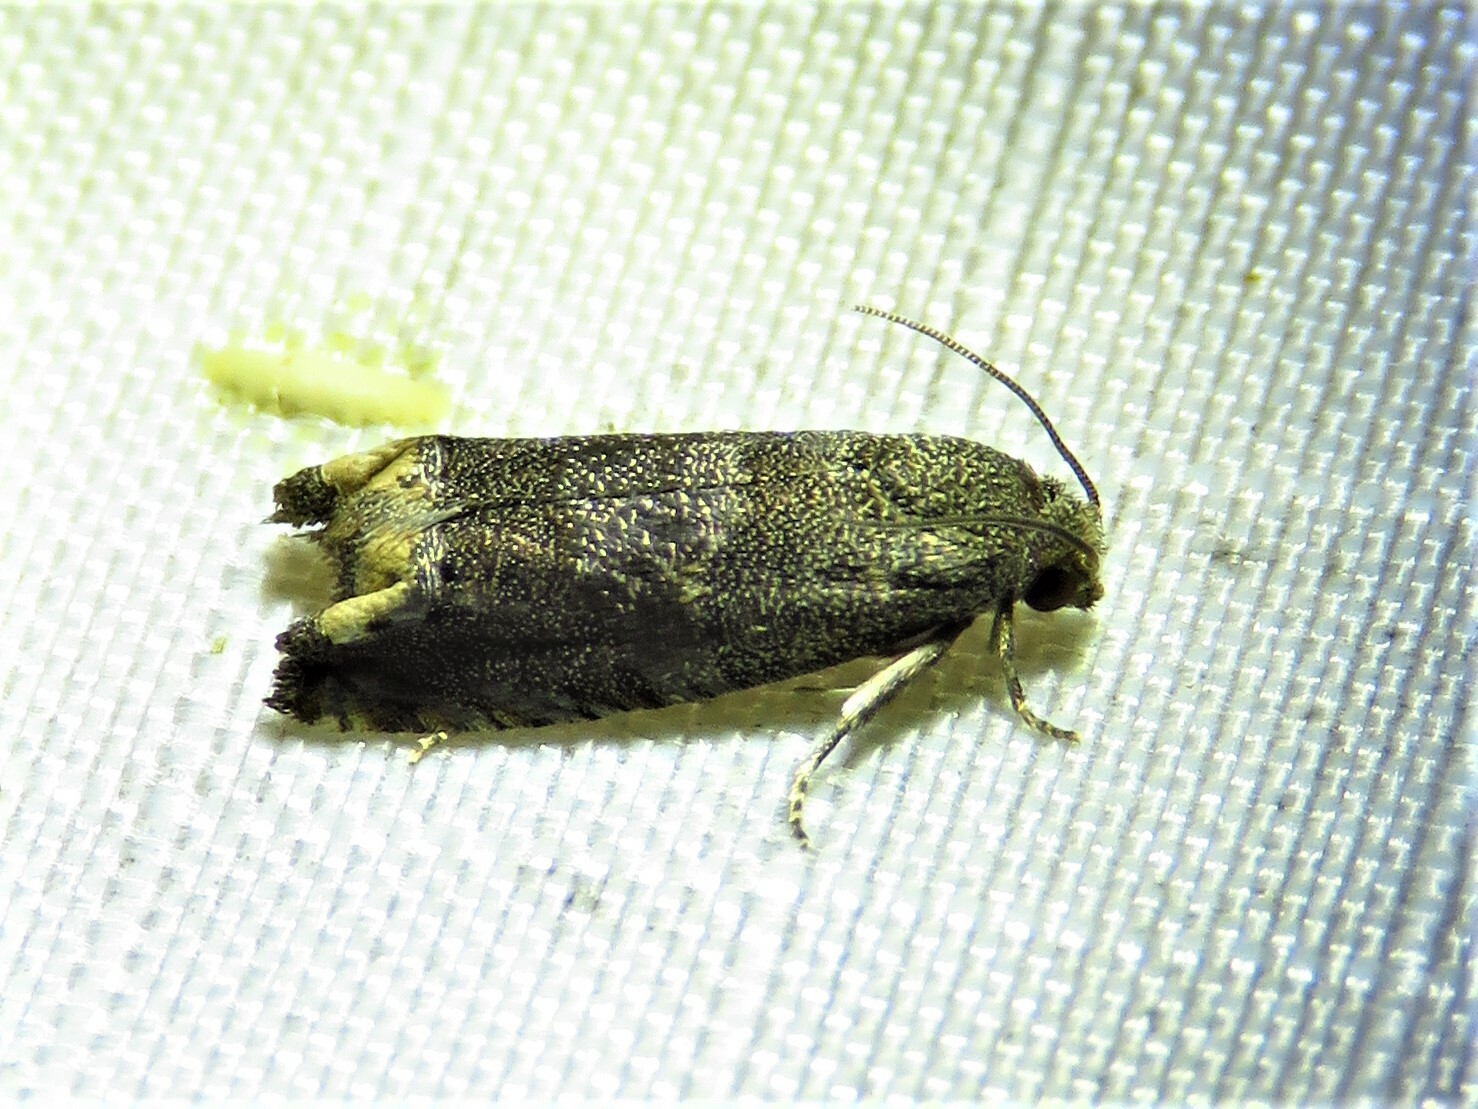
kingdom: Animalia
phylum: Arthropoda
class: Insecta
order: Lepidoptera
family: Tortricidae
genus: Epiblema
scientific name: Epiblema strenuana
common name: Ragweed borer moth
